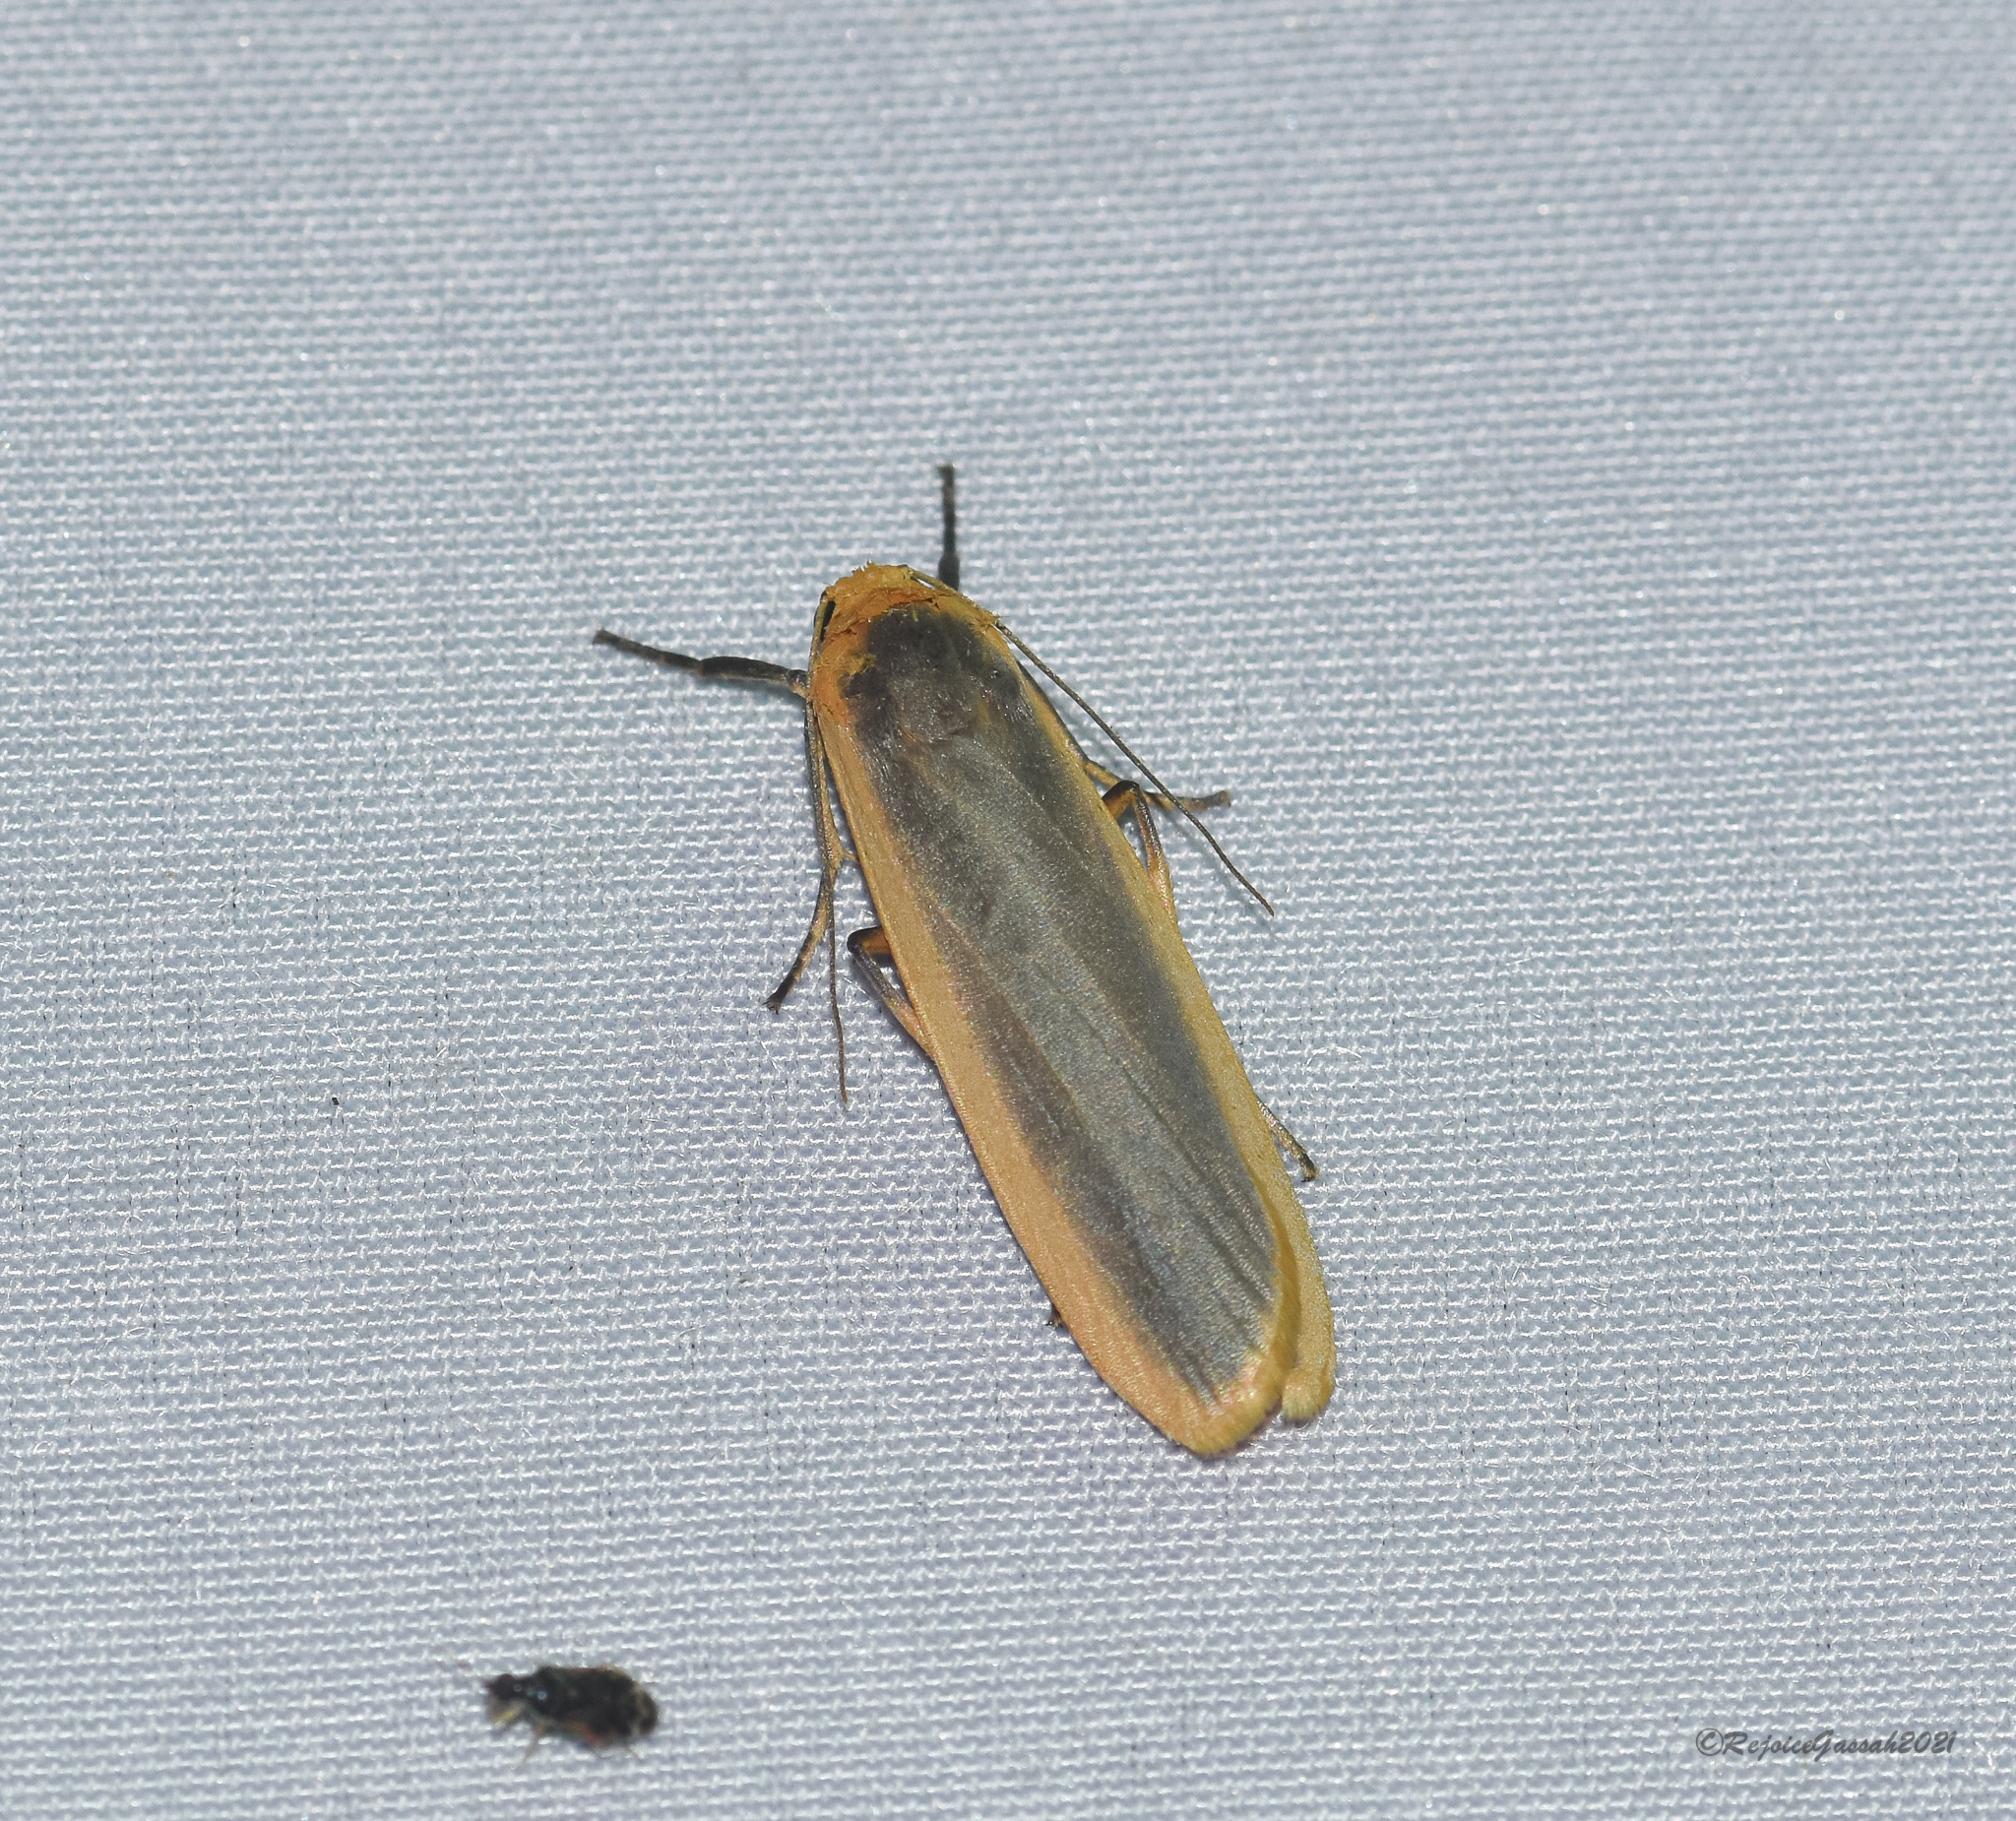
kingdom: Animalia
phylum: Arthropoda
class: Insecta
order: Lepidoptera
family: Erebidae
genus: Brunia
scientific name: Brunia antica
